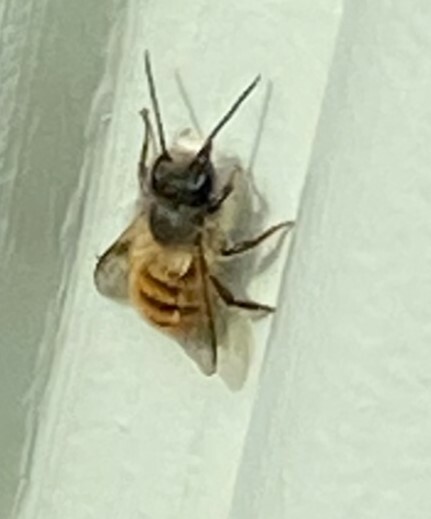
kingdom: Animalia
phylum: Arthropoda
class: Insecta
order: Hymenoptera
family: Megachilidae
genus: Osmia
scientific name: Osmia bicornis
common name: Red mason bee
